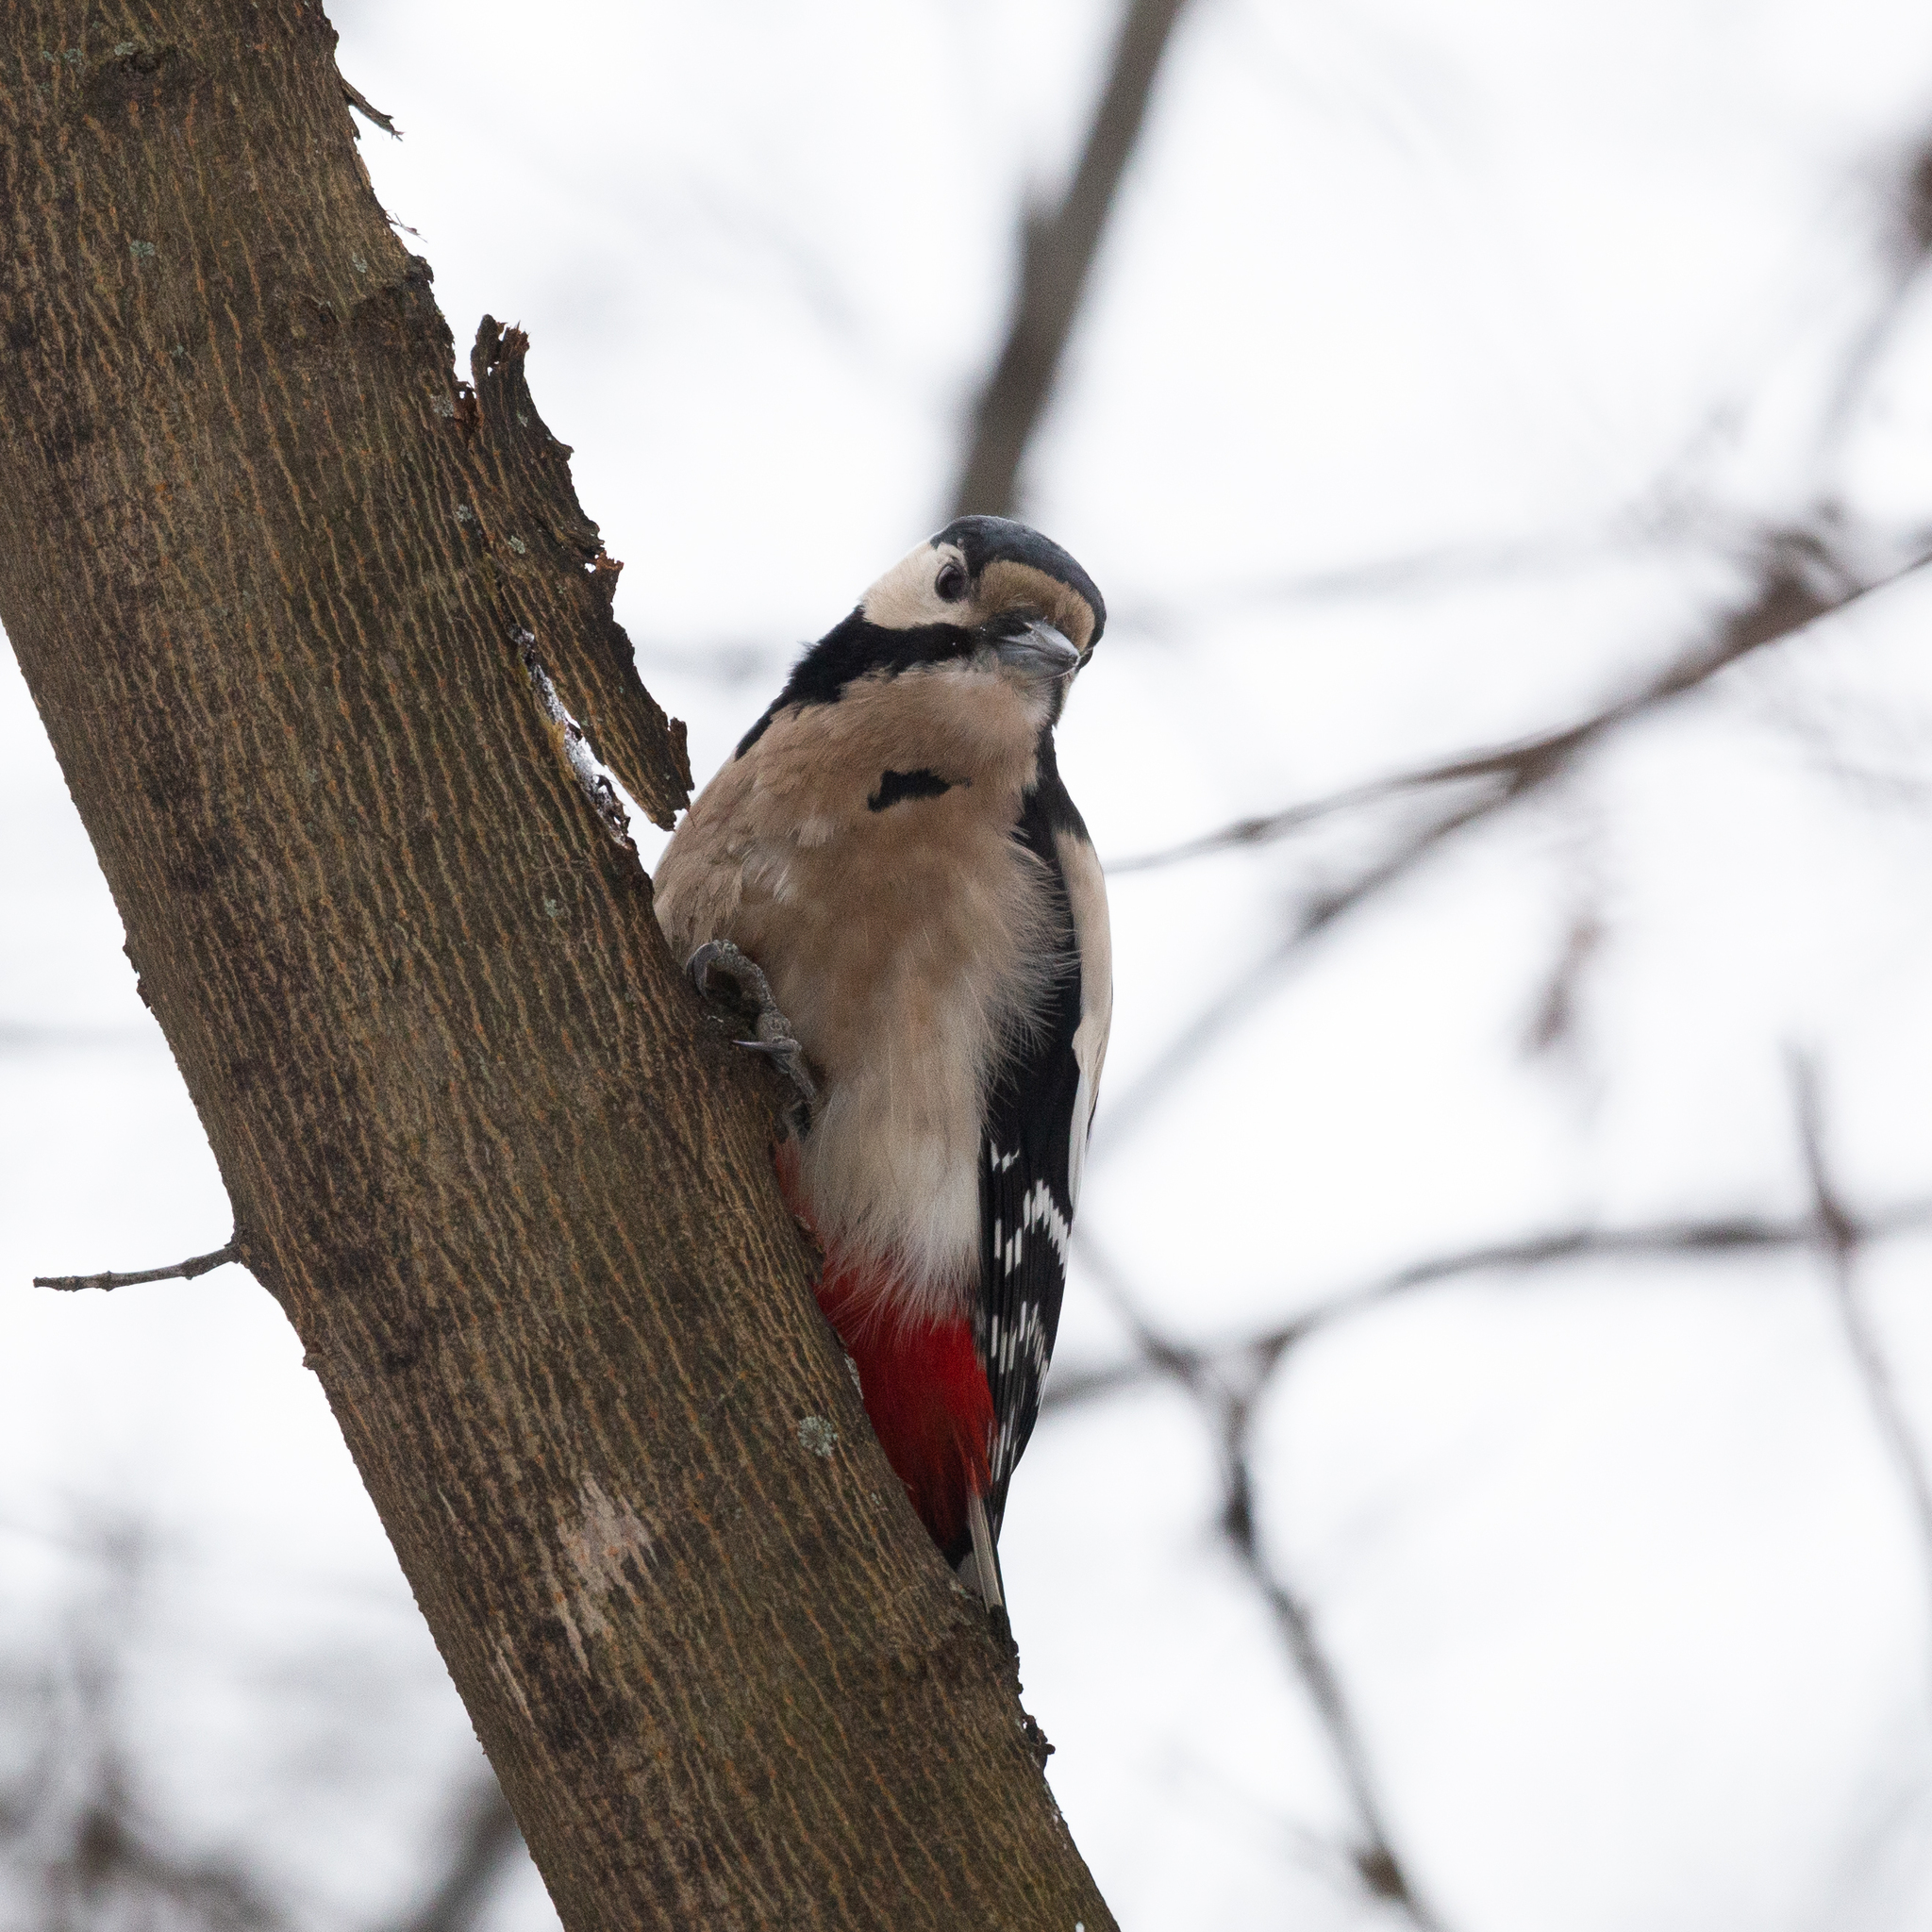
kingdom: Animalia
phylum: Chordata
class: Aves
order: Piciformes
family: Picidae
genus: Dendrocopos
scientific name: Dendrocopos major
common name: Great spotted woodpecker
